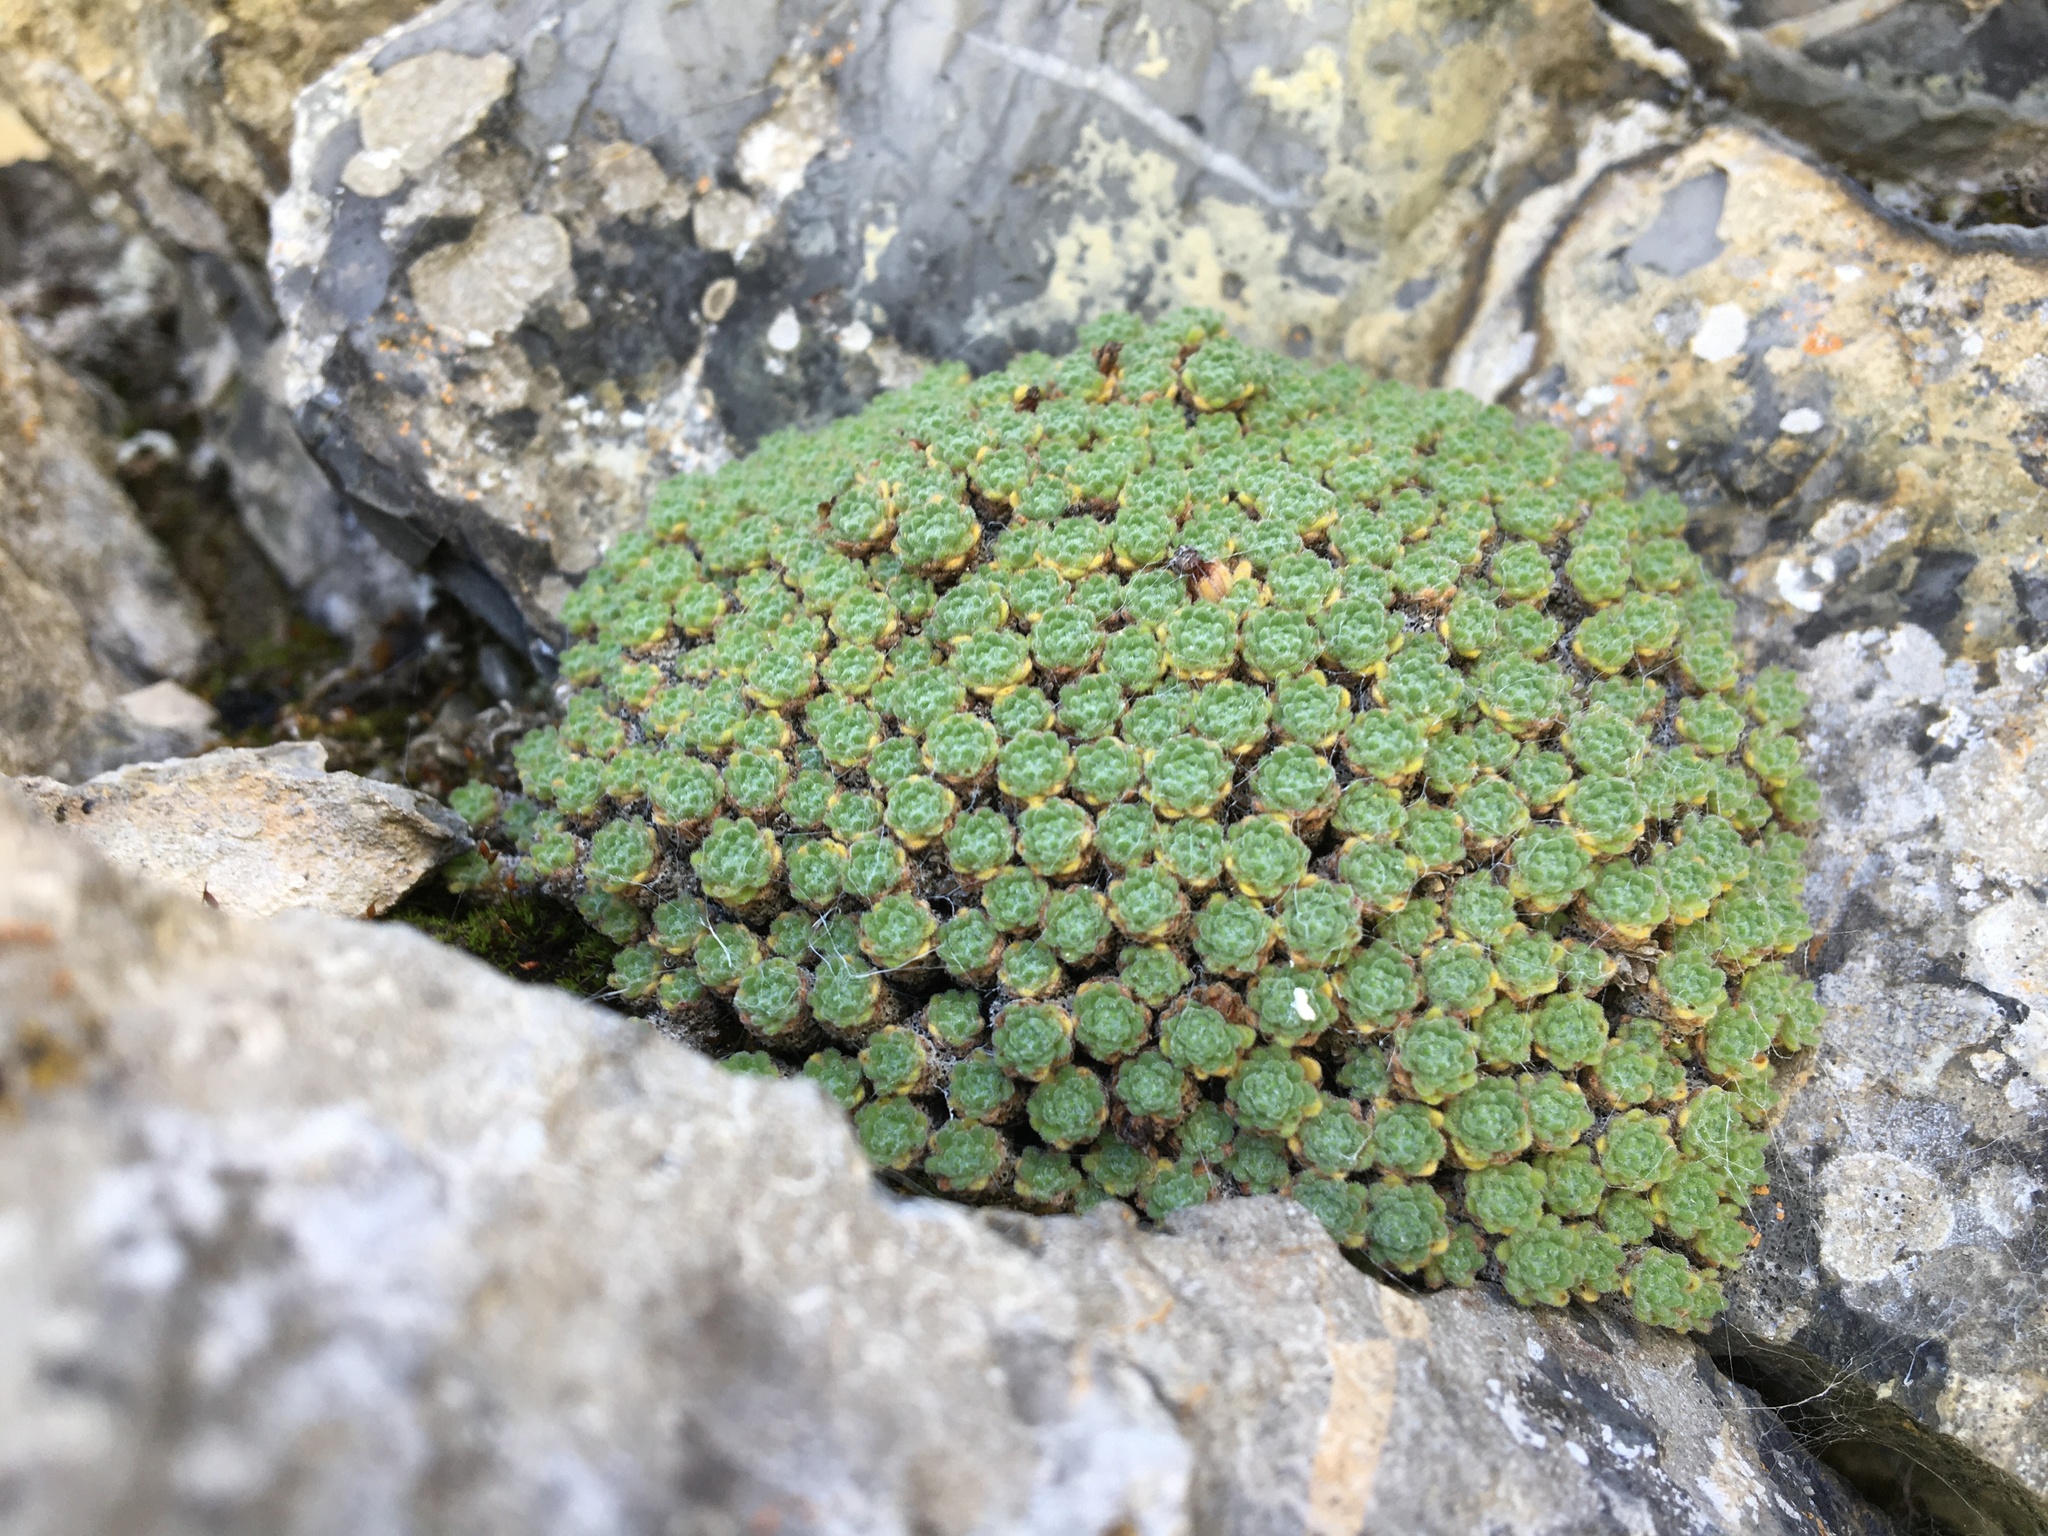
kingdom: Plantae
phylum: Tracheophyta
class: Magnoliopsida
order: Ericales
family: Primulaceae
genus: Androsace
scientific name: Androsace helvetica
